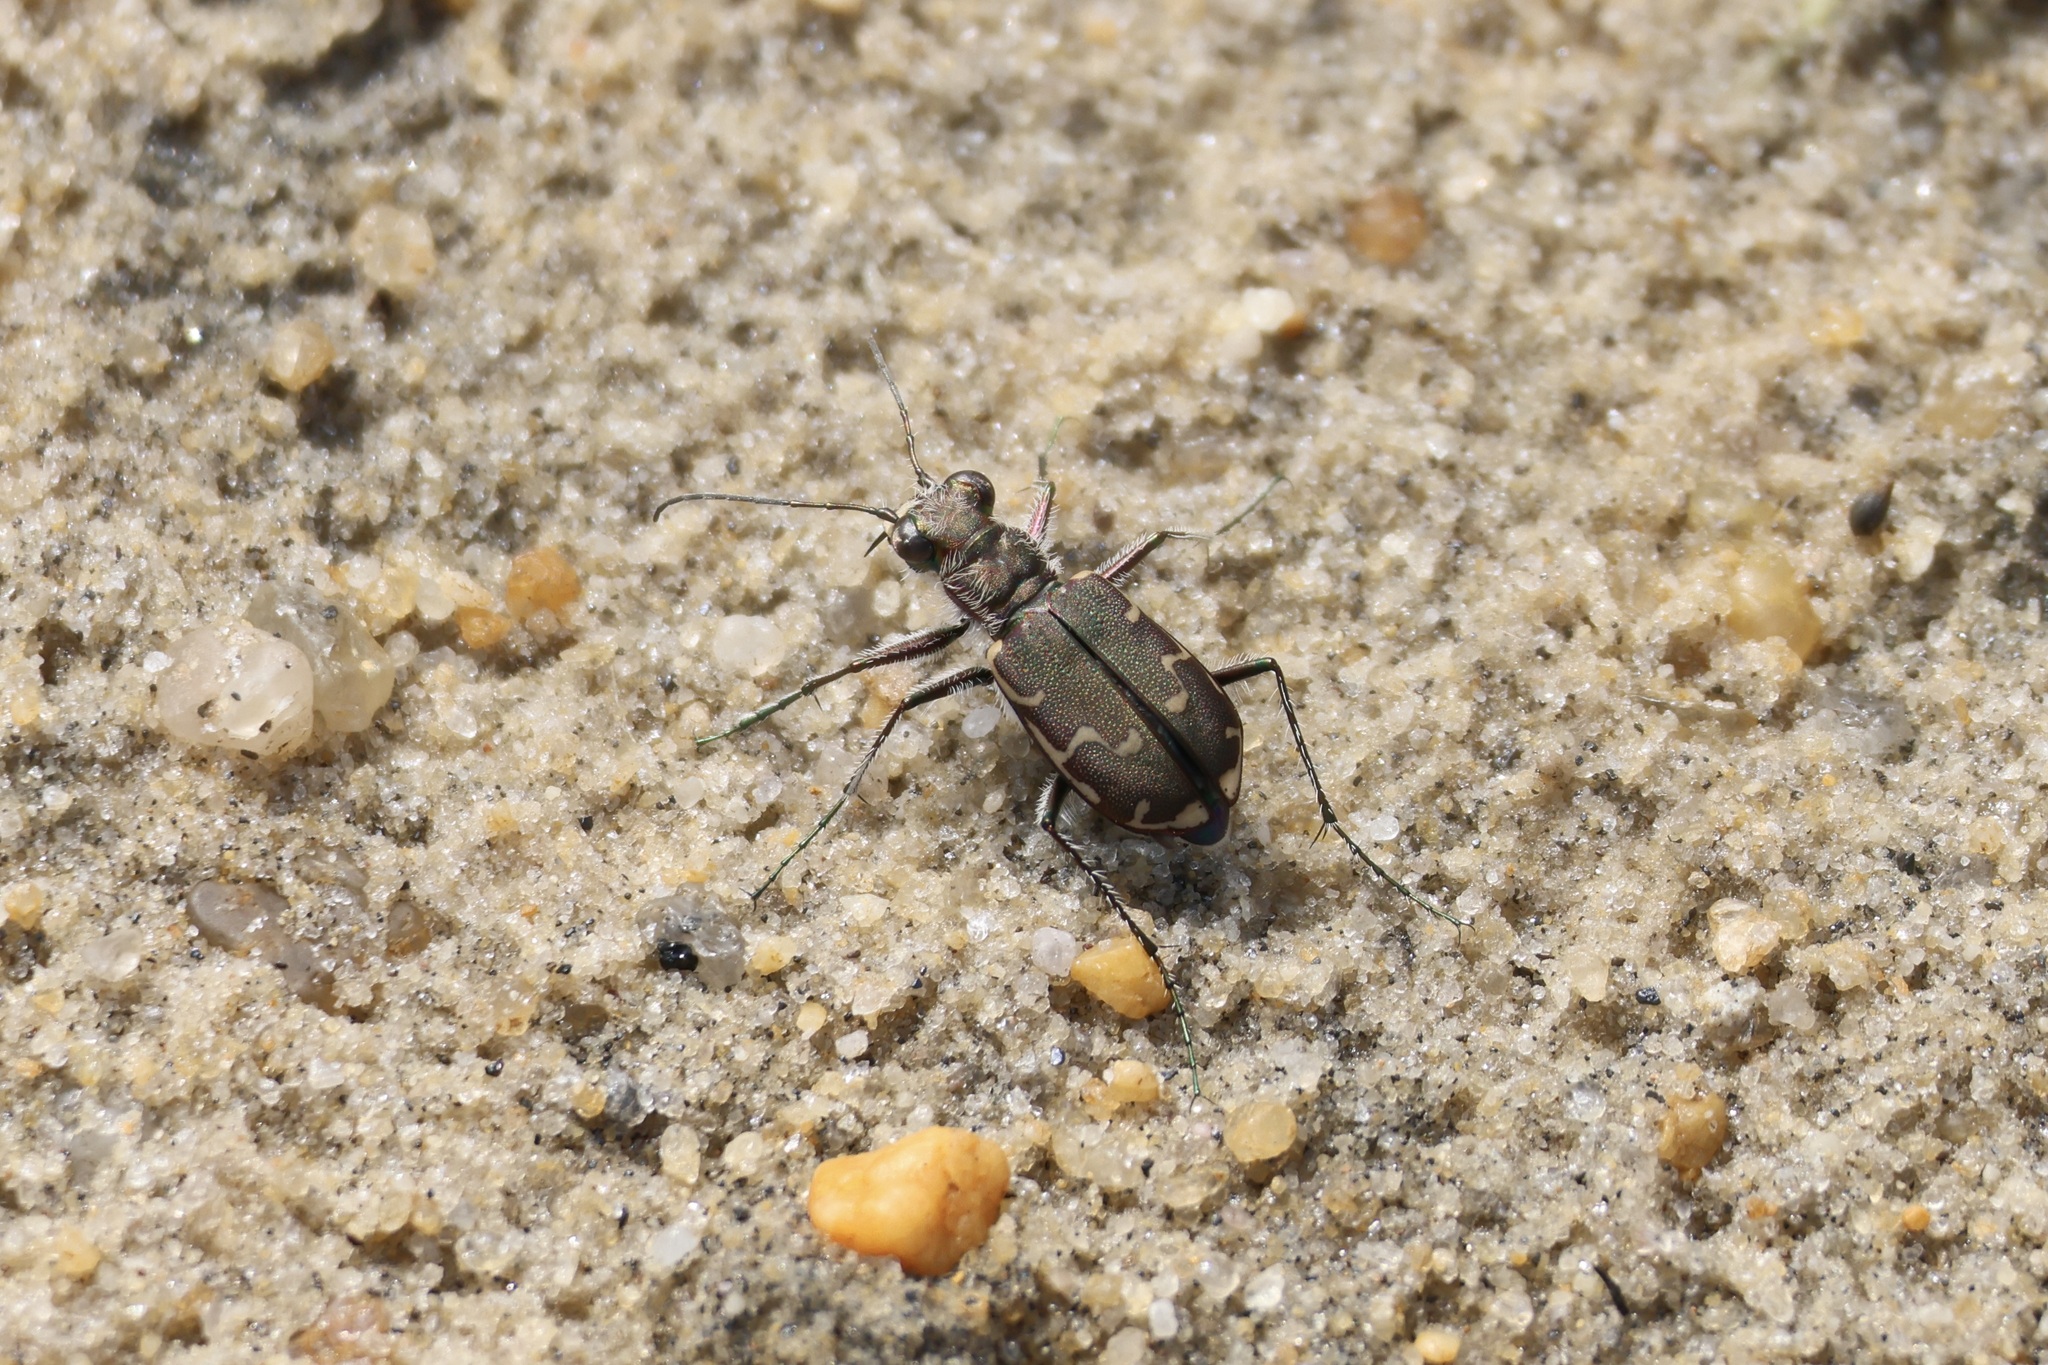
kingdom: Animalia
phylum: Arthropoda
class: Insecta
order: Coleoptera
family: Carabidae
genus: Cicindela
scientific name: Cicindela repanda
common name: Bronzed tiger beetle
